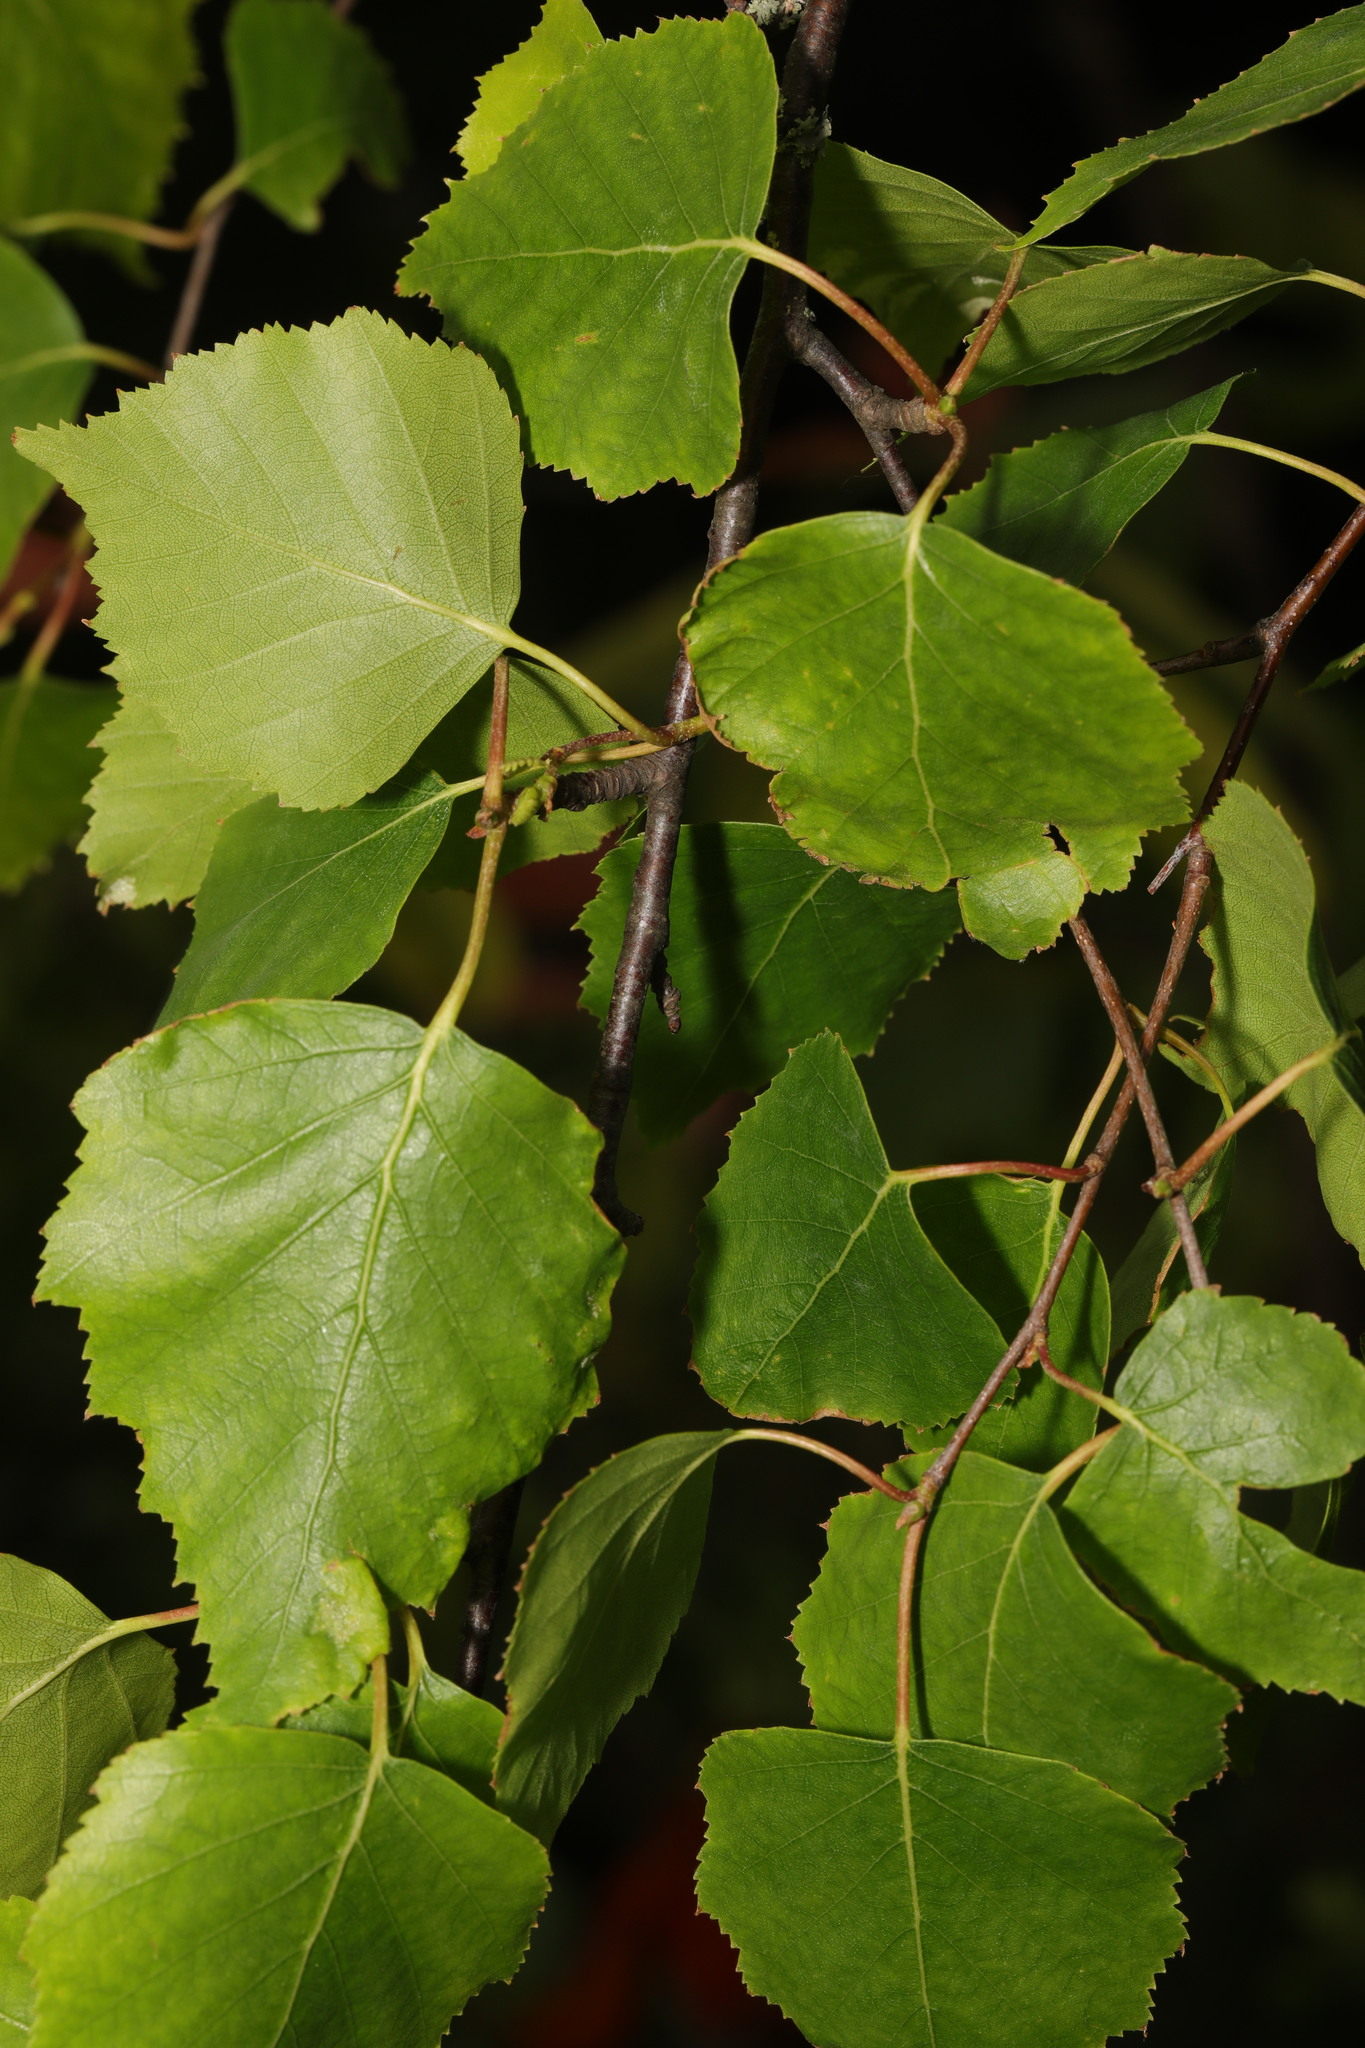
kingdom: Plantae
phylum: Tracheophyta
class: Magnoliopsida
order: Fagales
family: Betulaceae
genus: Betula
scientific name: Betula pendula
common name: Silver birch
